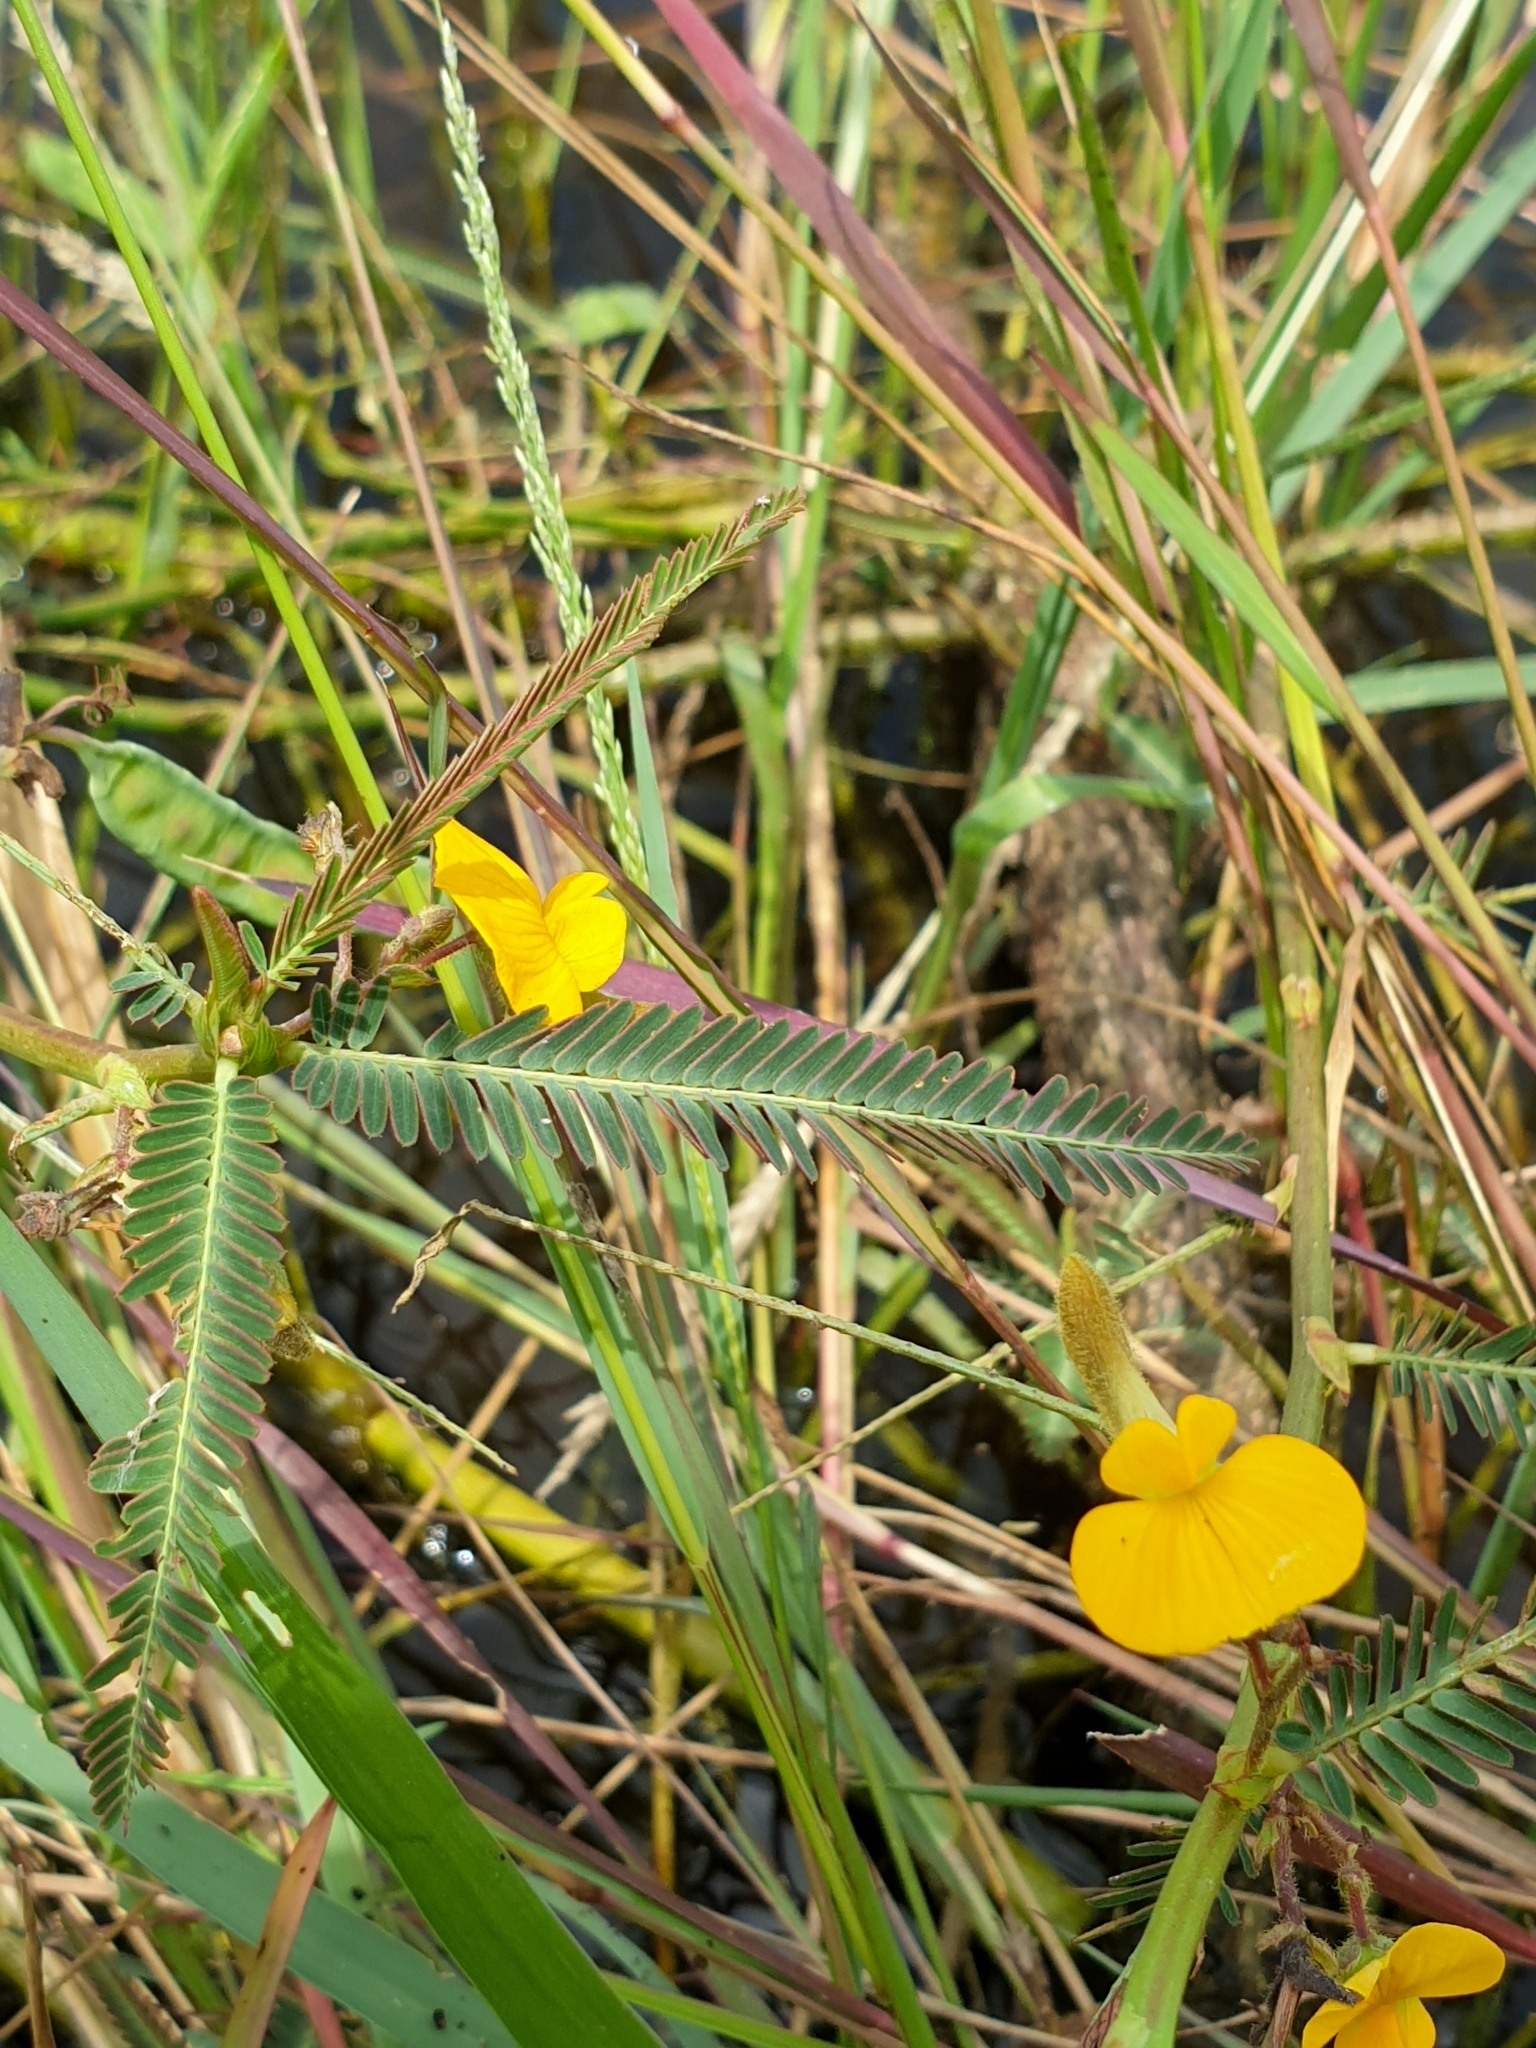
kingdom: Plantae
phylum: Tracheophyta
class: Magnoliopsida
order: Fabales
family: Fabaceae
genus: Aeschynomene
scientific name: Aeschynomene aspera
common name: Pith plant
